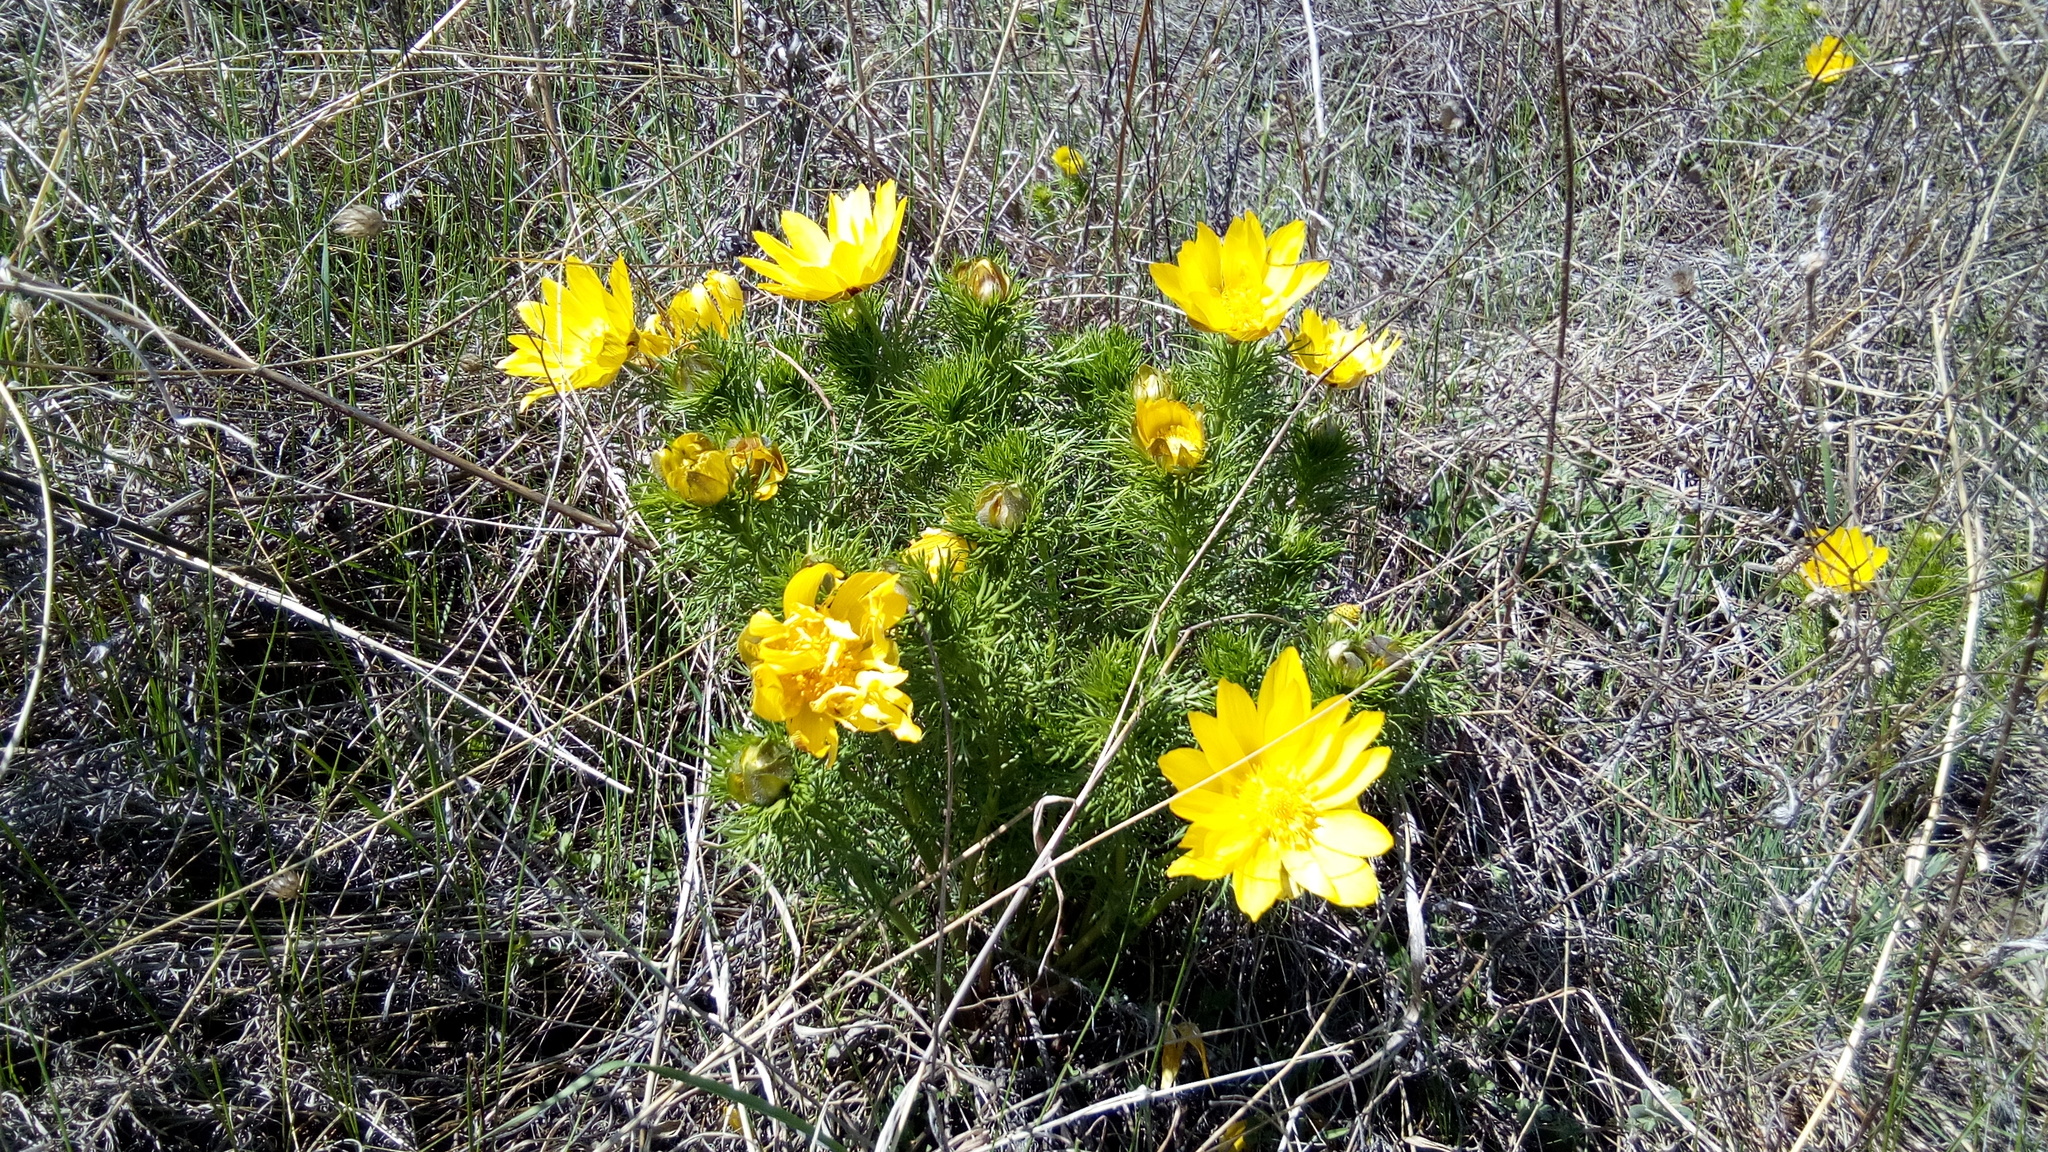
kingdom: Plantae
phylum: Tracheophyta
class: Magnoliopsida
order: Ranunculales
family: Ranunculaceae
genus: Adonis
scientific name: Adonis vernalis
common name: Yellow pheasants-eye
